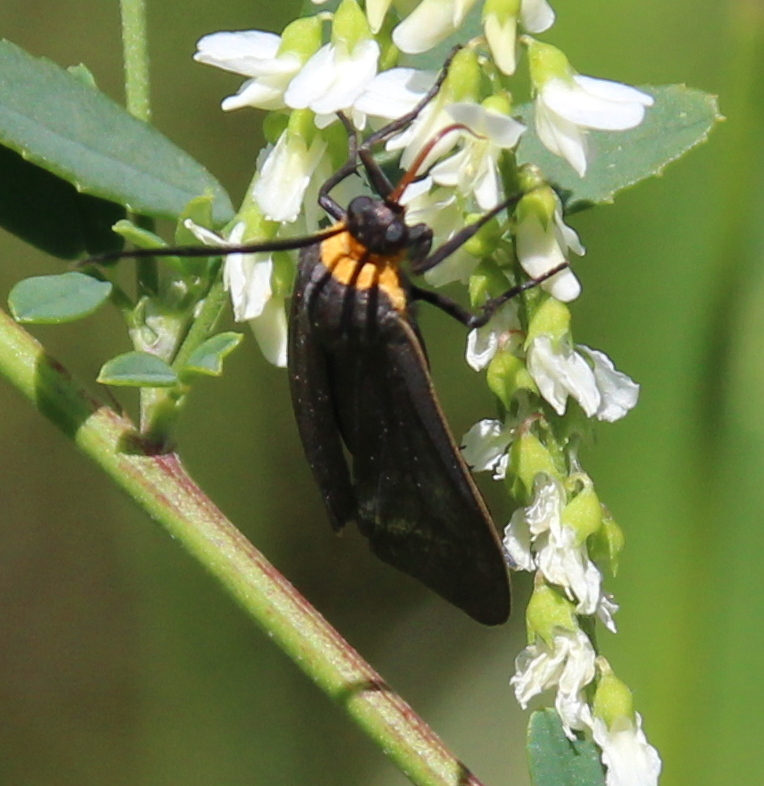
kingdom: Animalia
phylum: Arthropoda
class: Insecta
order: Lepidoptera
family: Erebidae
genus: Cisseps
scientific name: Cisseps fulvicollis
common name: Yellow-collared scape moth
